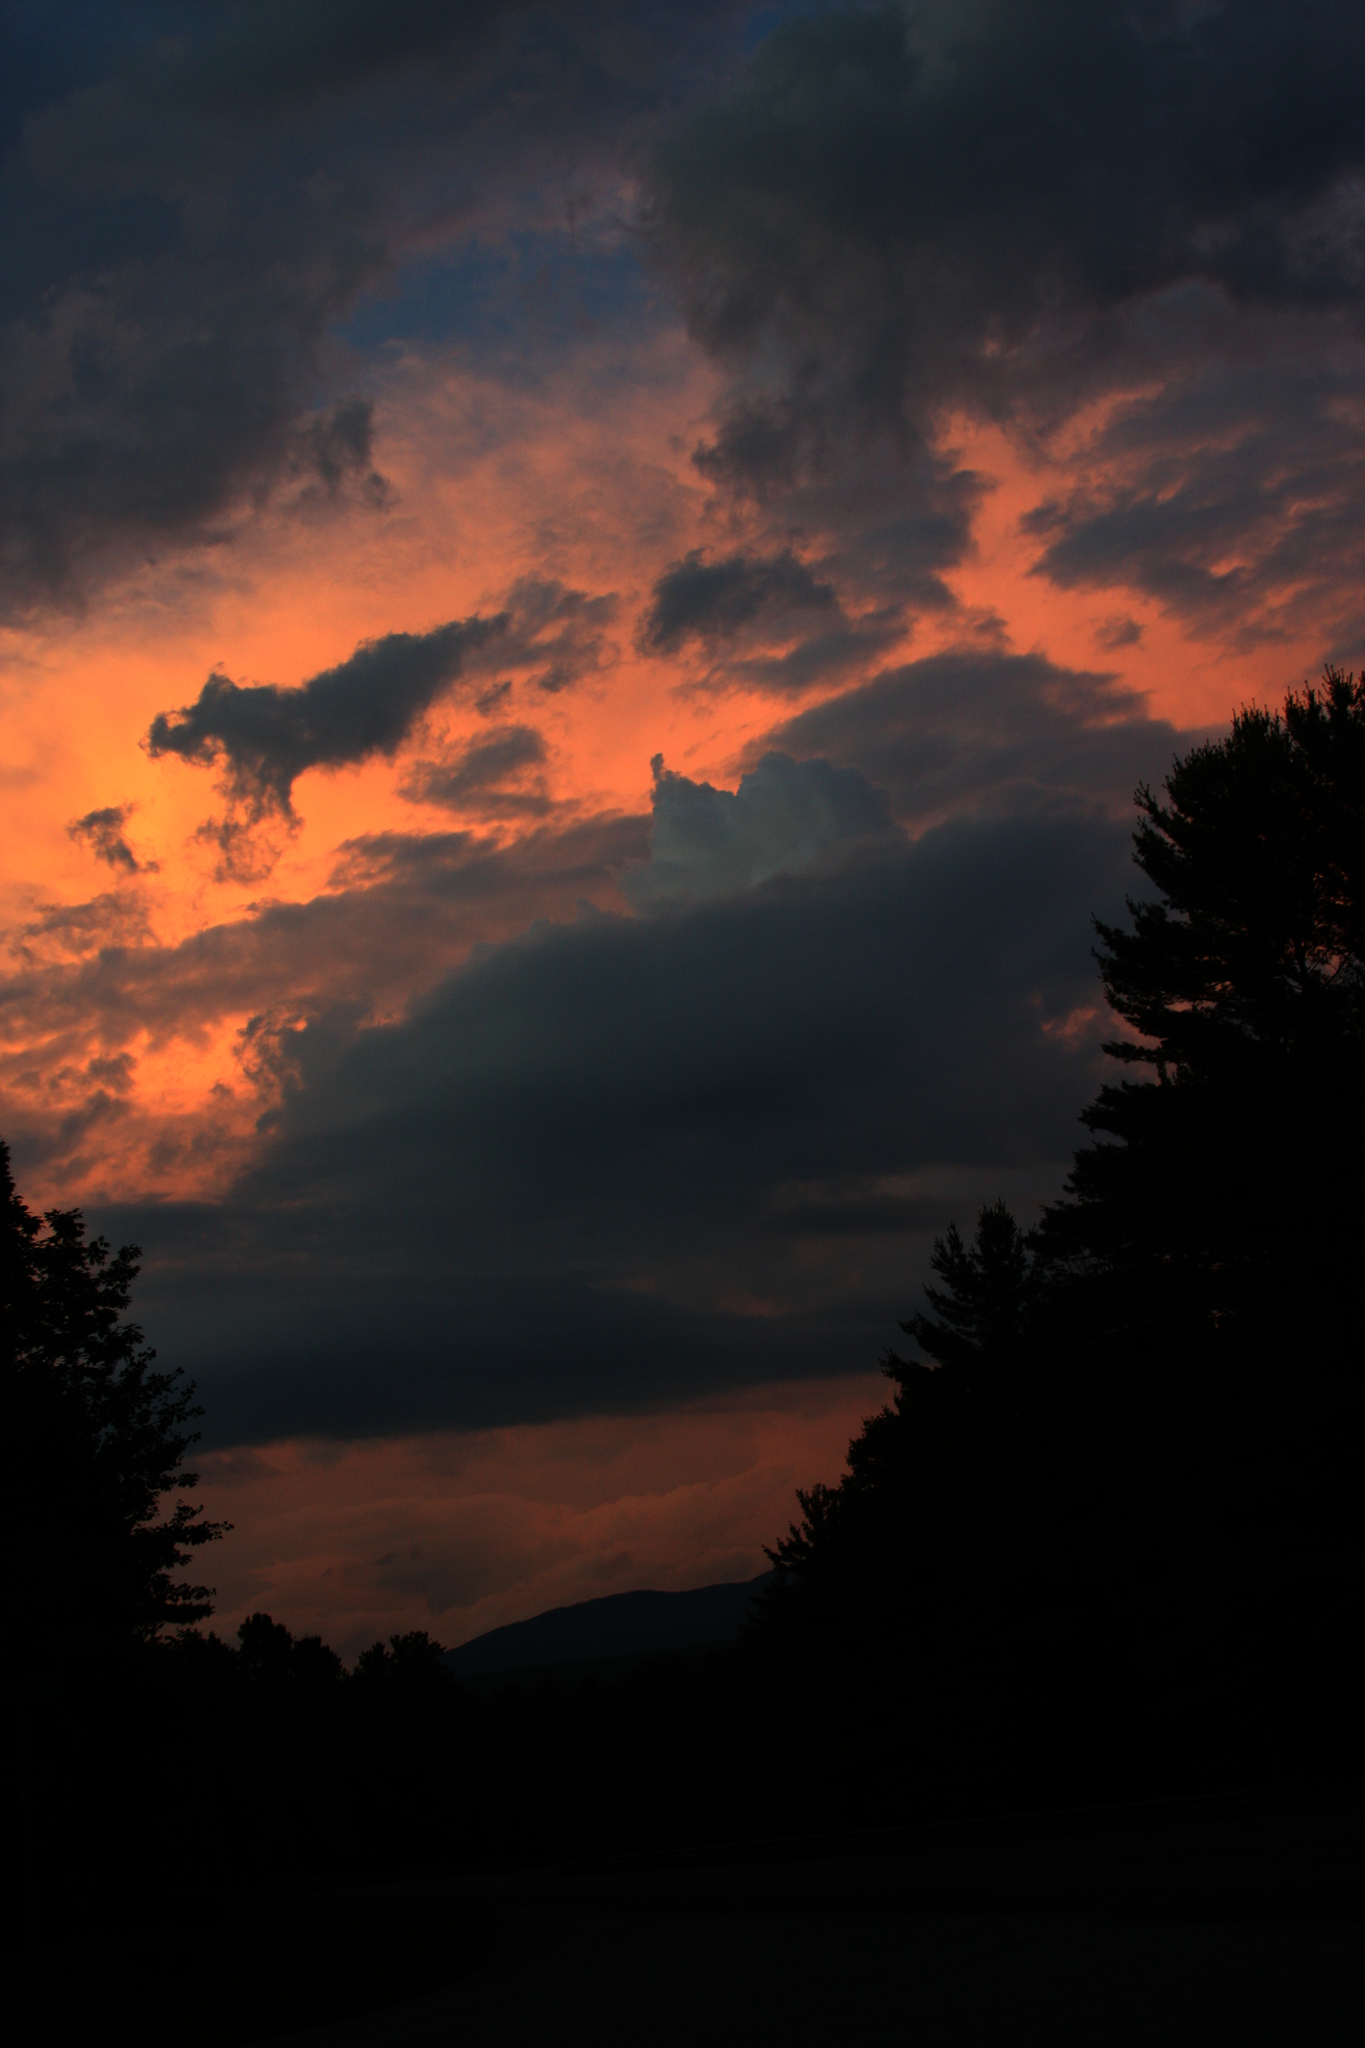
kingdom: Plantae
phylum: Tracheophyta
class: Pinopsida
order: Pinales
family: Pinaceae
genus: Pinus
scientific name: Pinus strobus
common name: Weymouth pine
